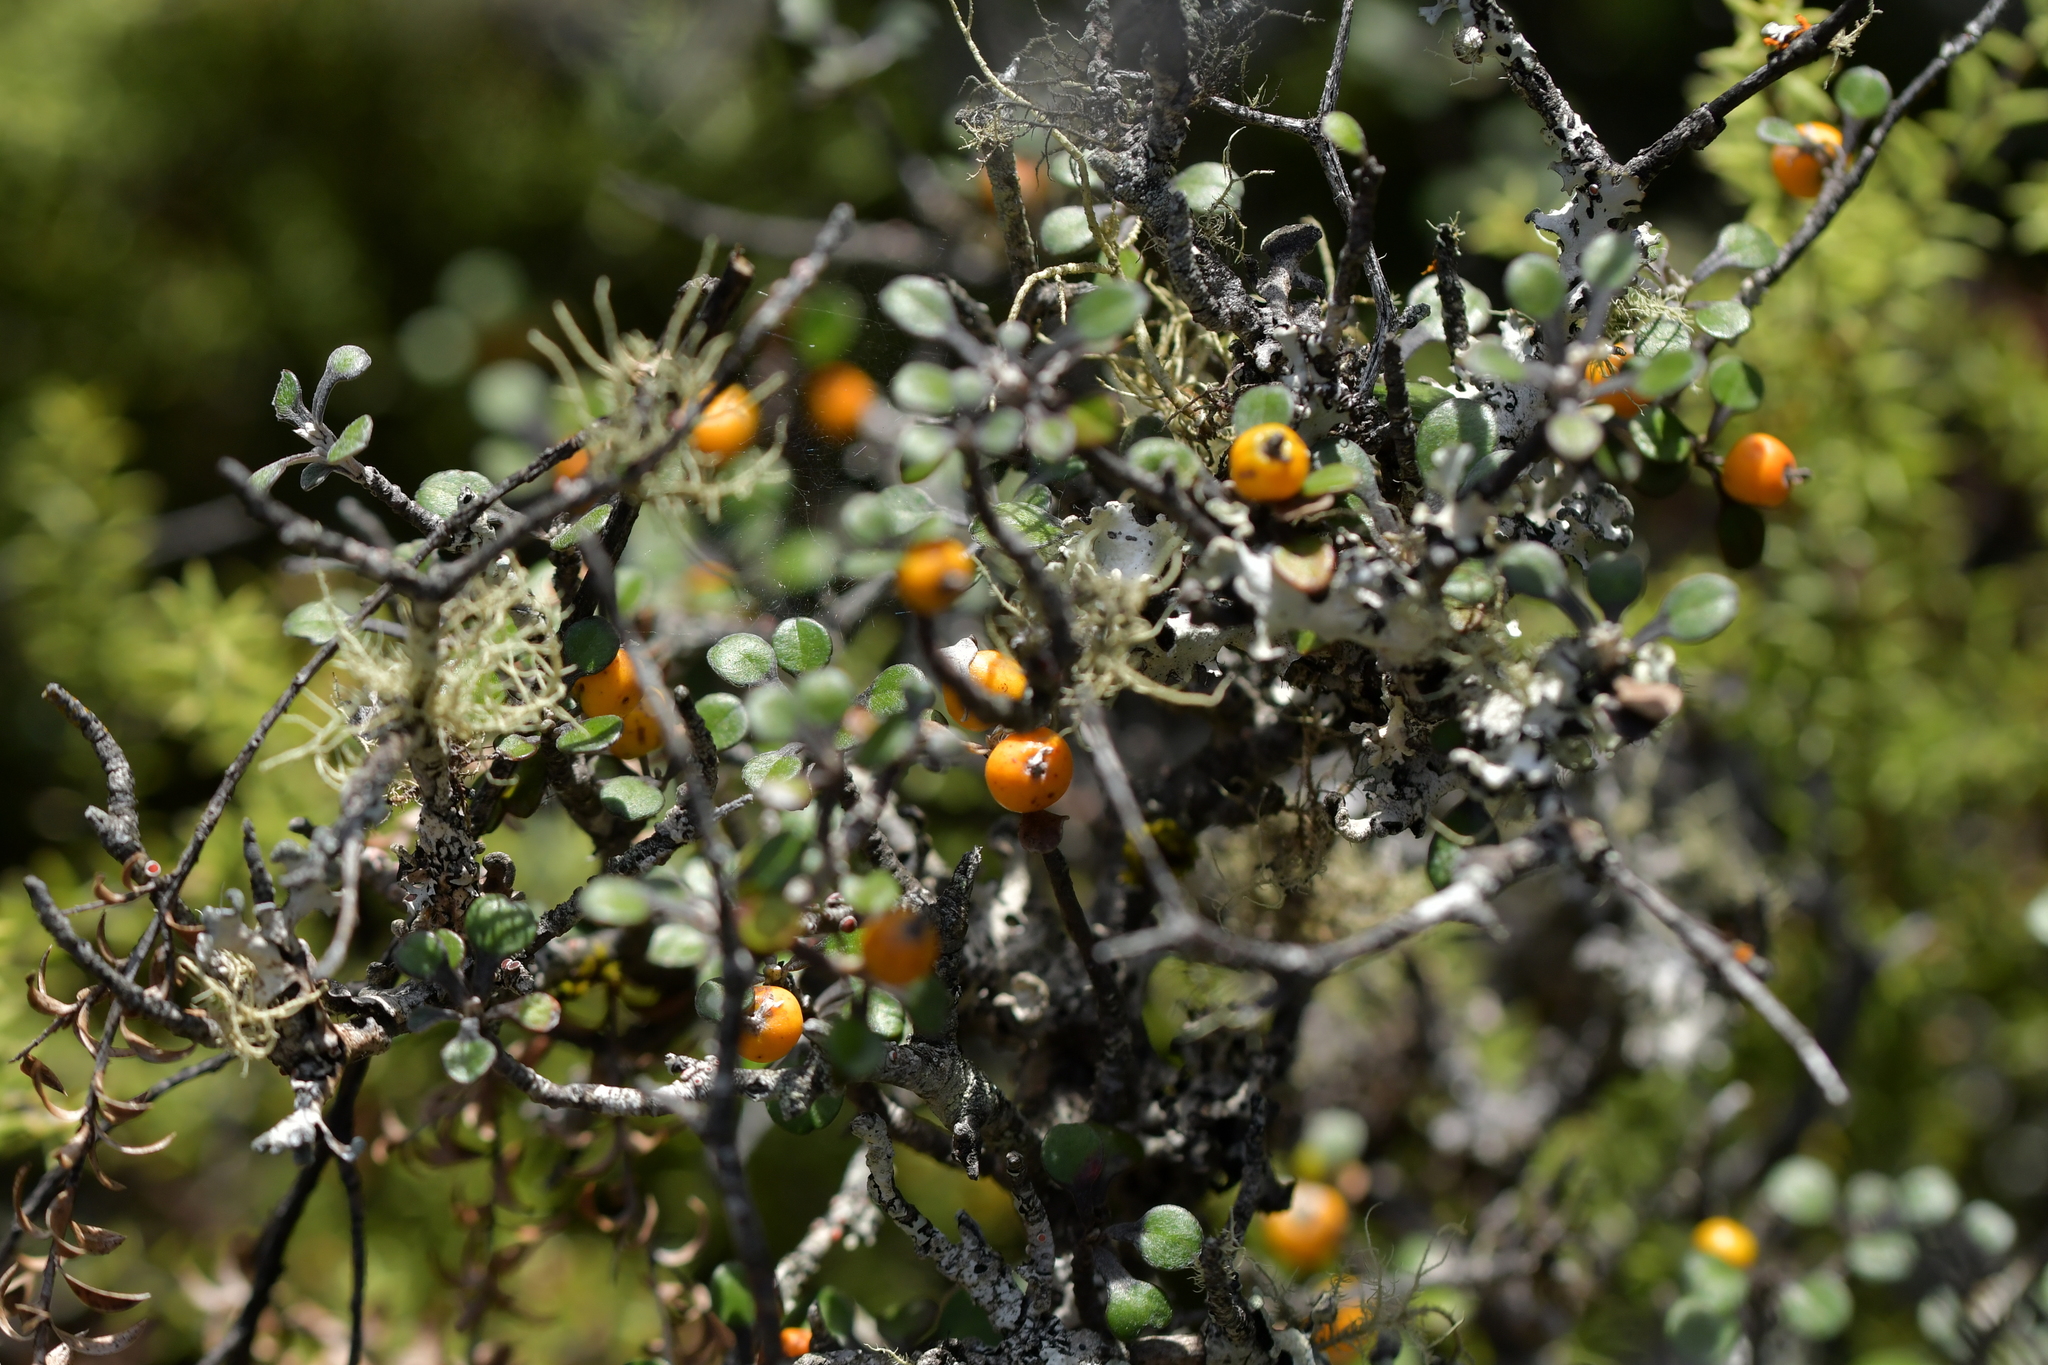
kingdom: Plantae
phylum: Tracheophyta
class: Magnoliopsida
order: Asterales
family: Argophyllaceae
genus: Corokia
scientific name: Corokia cotoneaster
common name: Wire nettingbush
